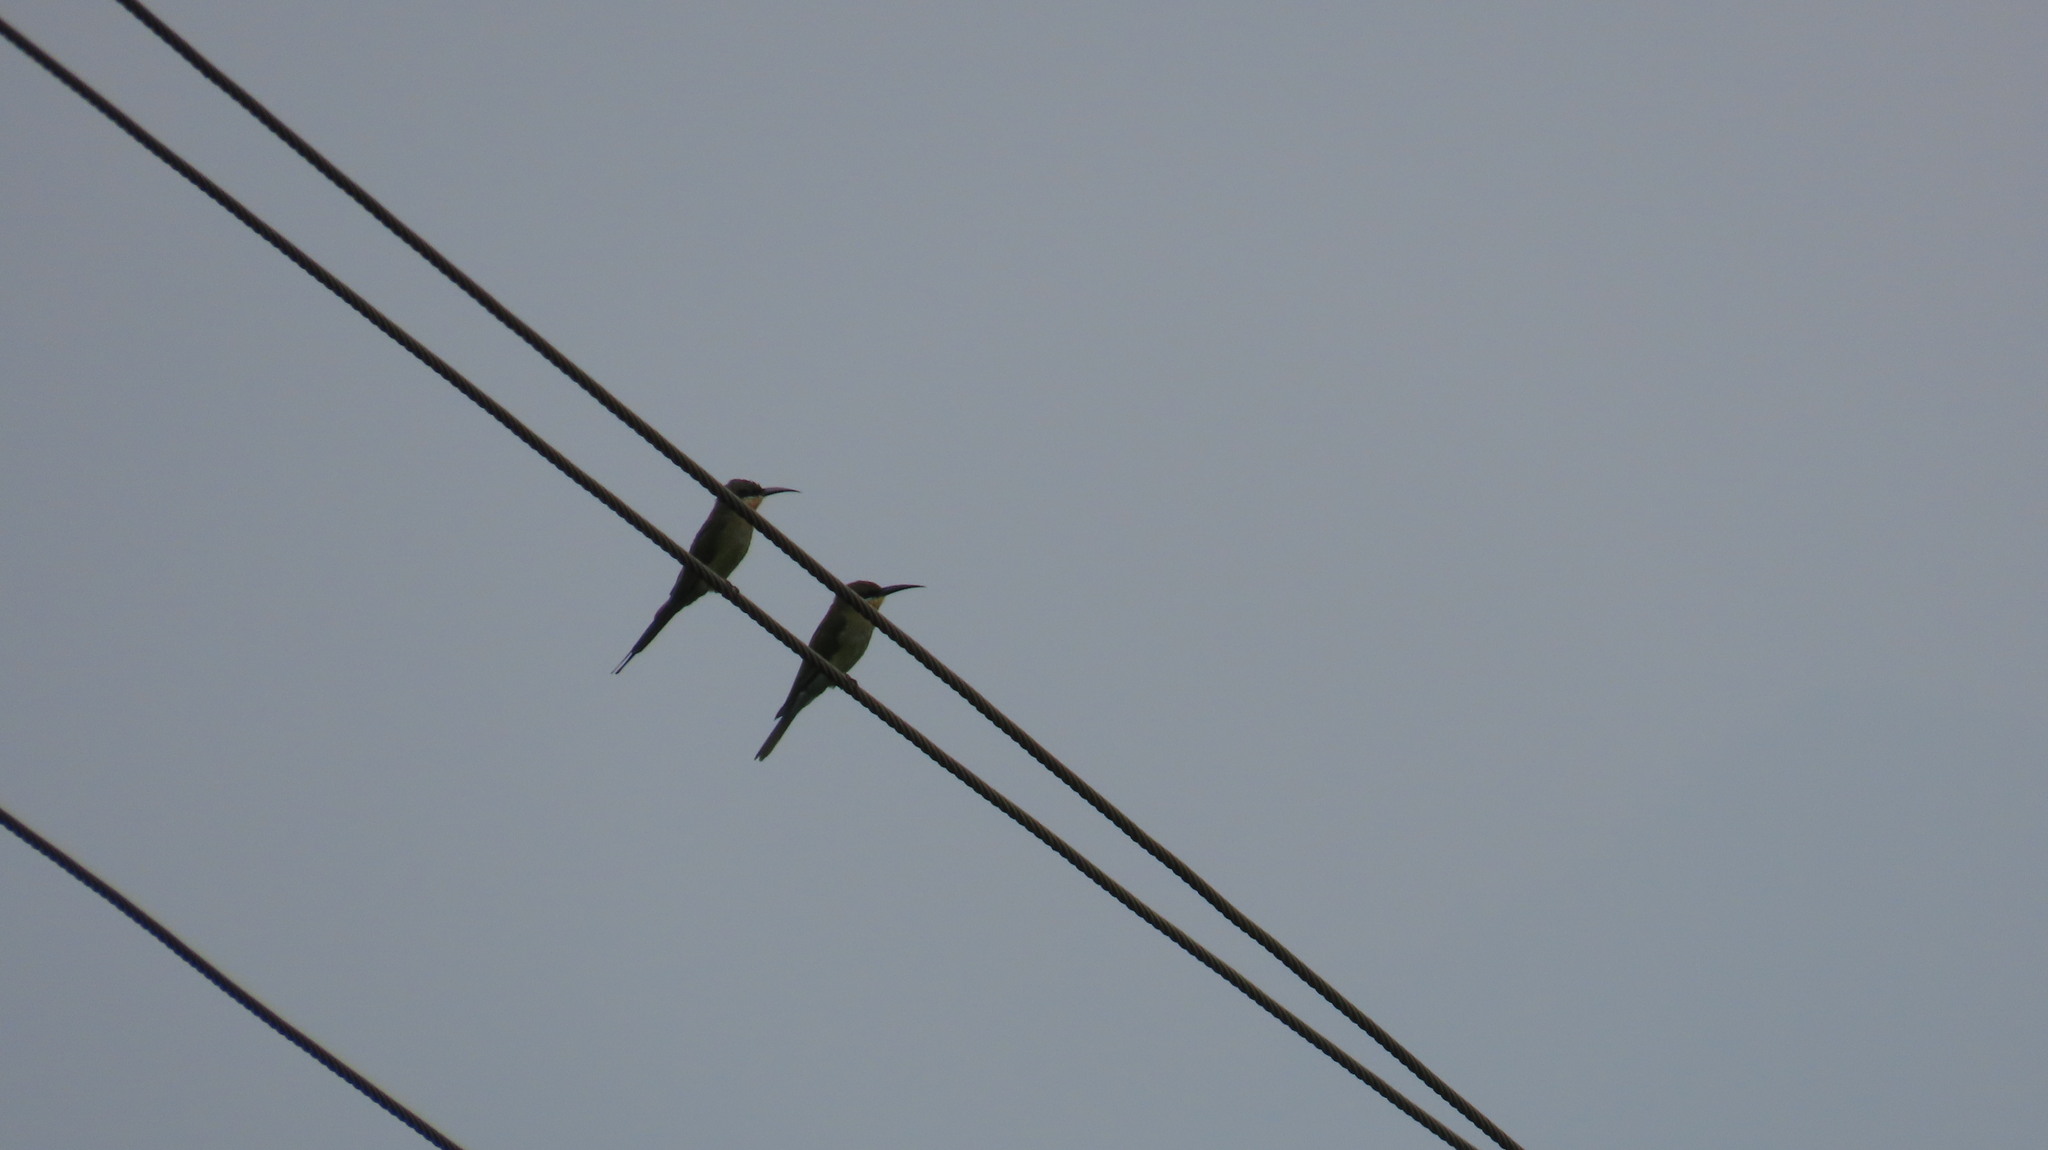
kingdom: Animalia
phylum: Chordata
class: Aves
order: Coraciiformes
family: Meropidae
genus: Merops
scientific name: Merops philippinus
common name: Blue-tailed bee-eater
